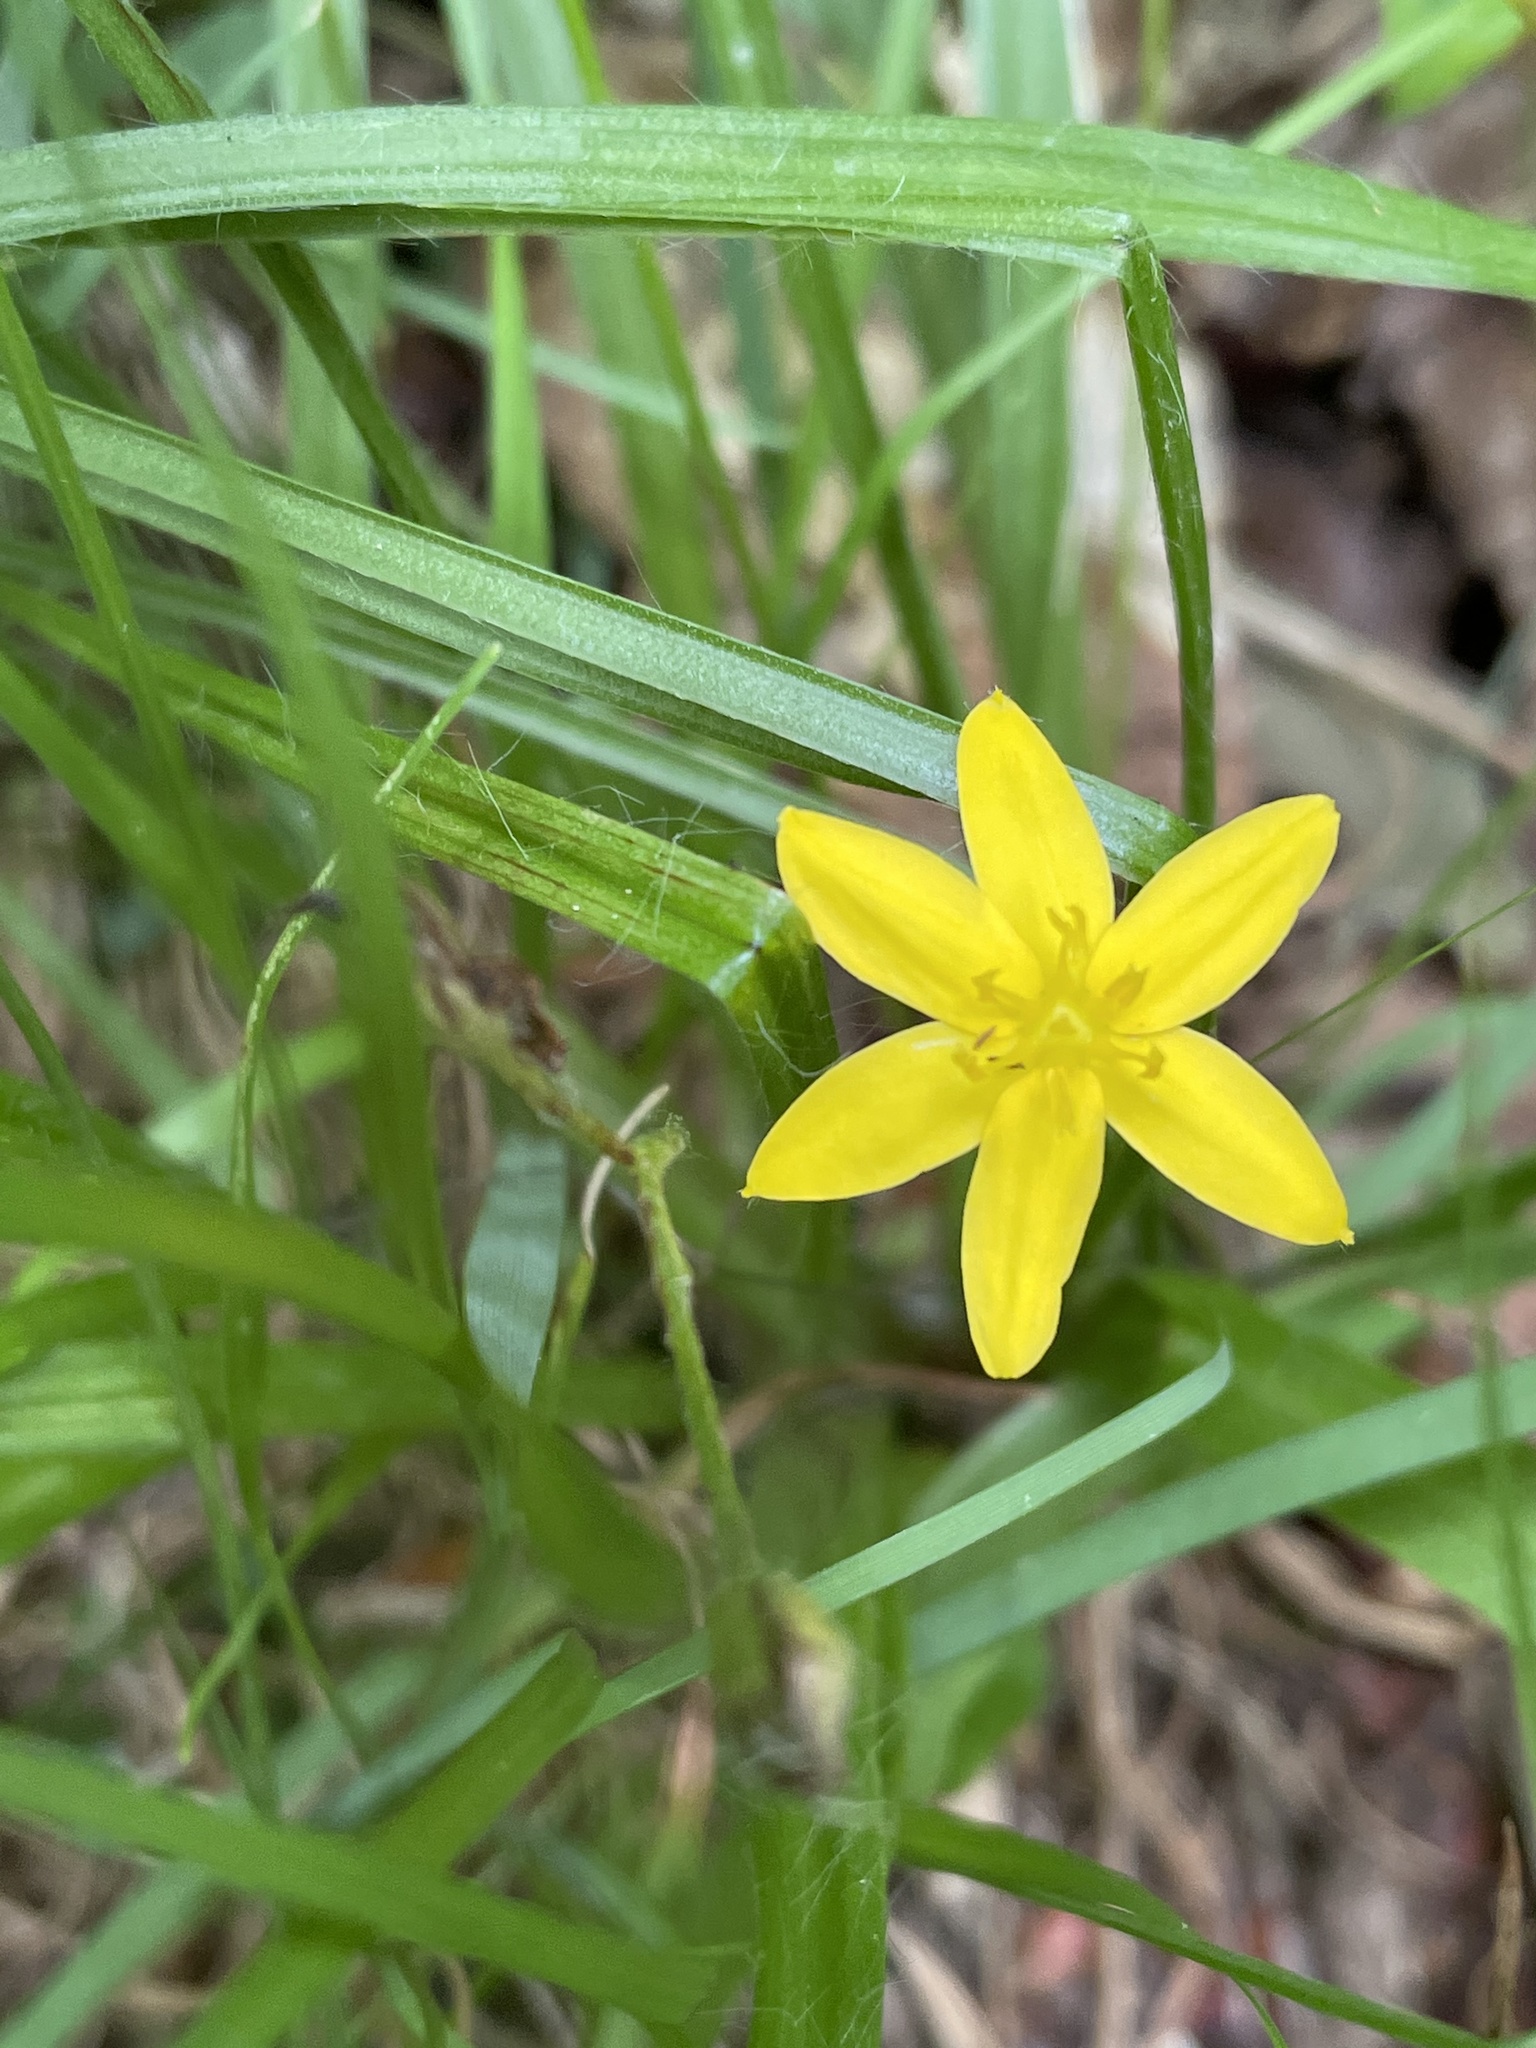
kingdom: Plantae
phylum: Tracheophyta
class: Liliopsida
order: Asparagales
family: Hypoxidaceae
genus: Hypoxis
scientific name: Hypoxis hirsuta
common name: Common goldstar
